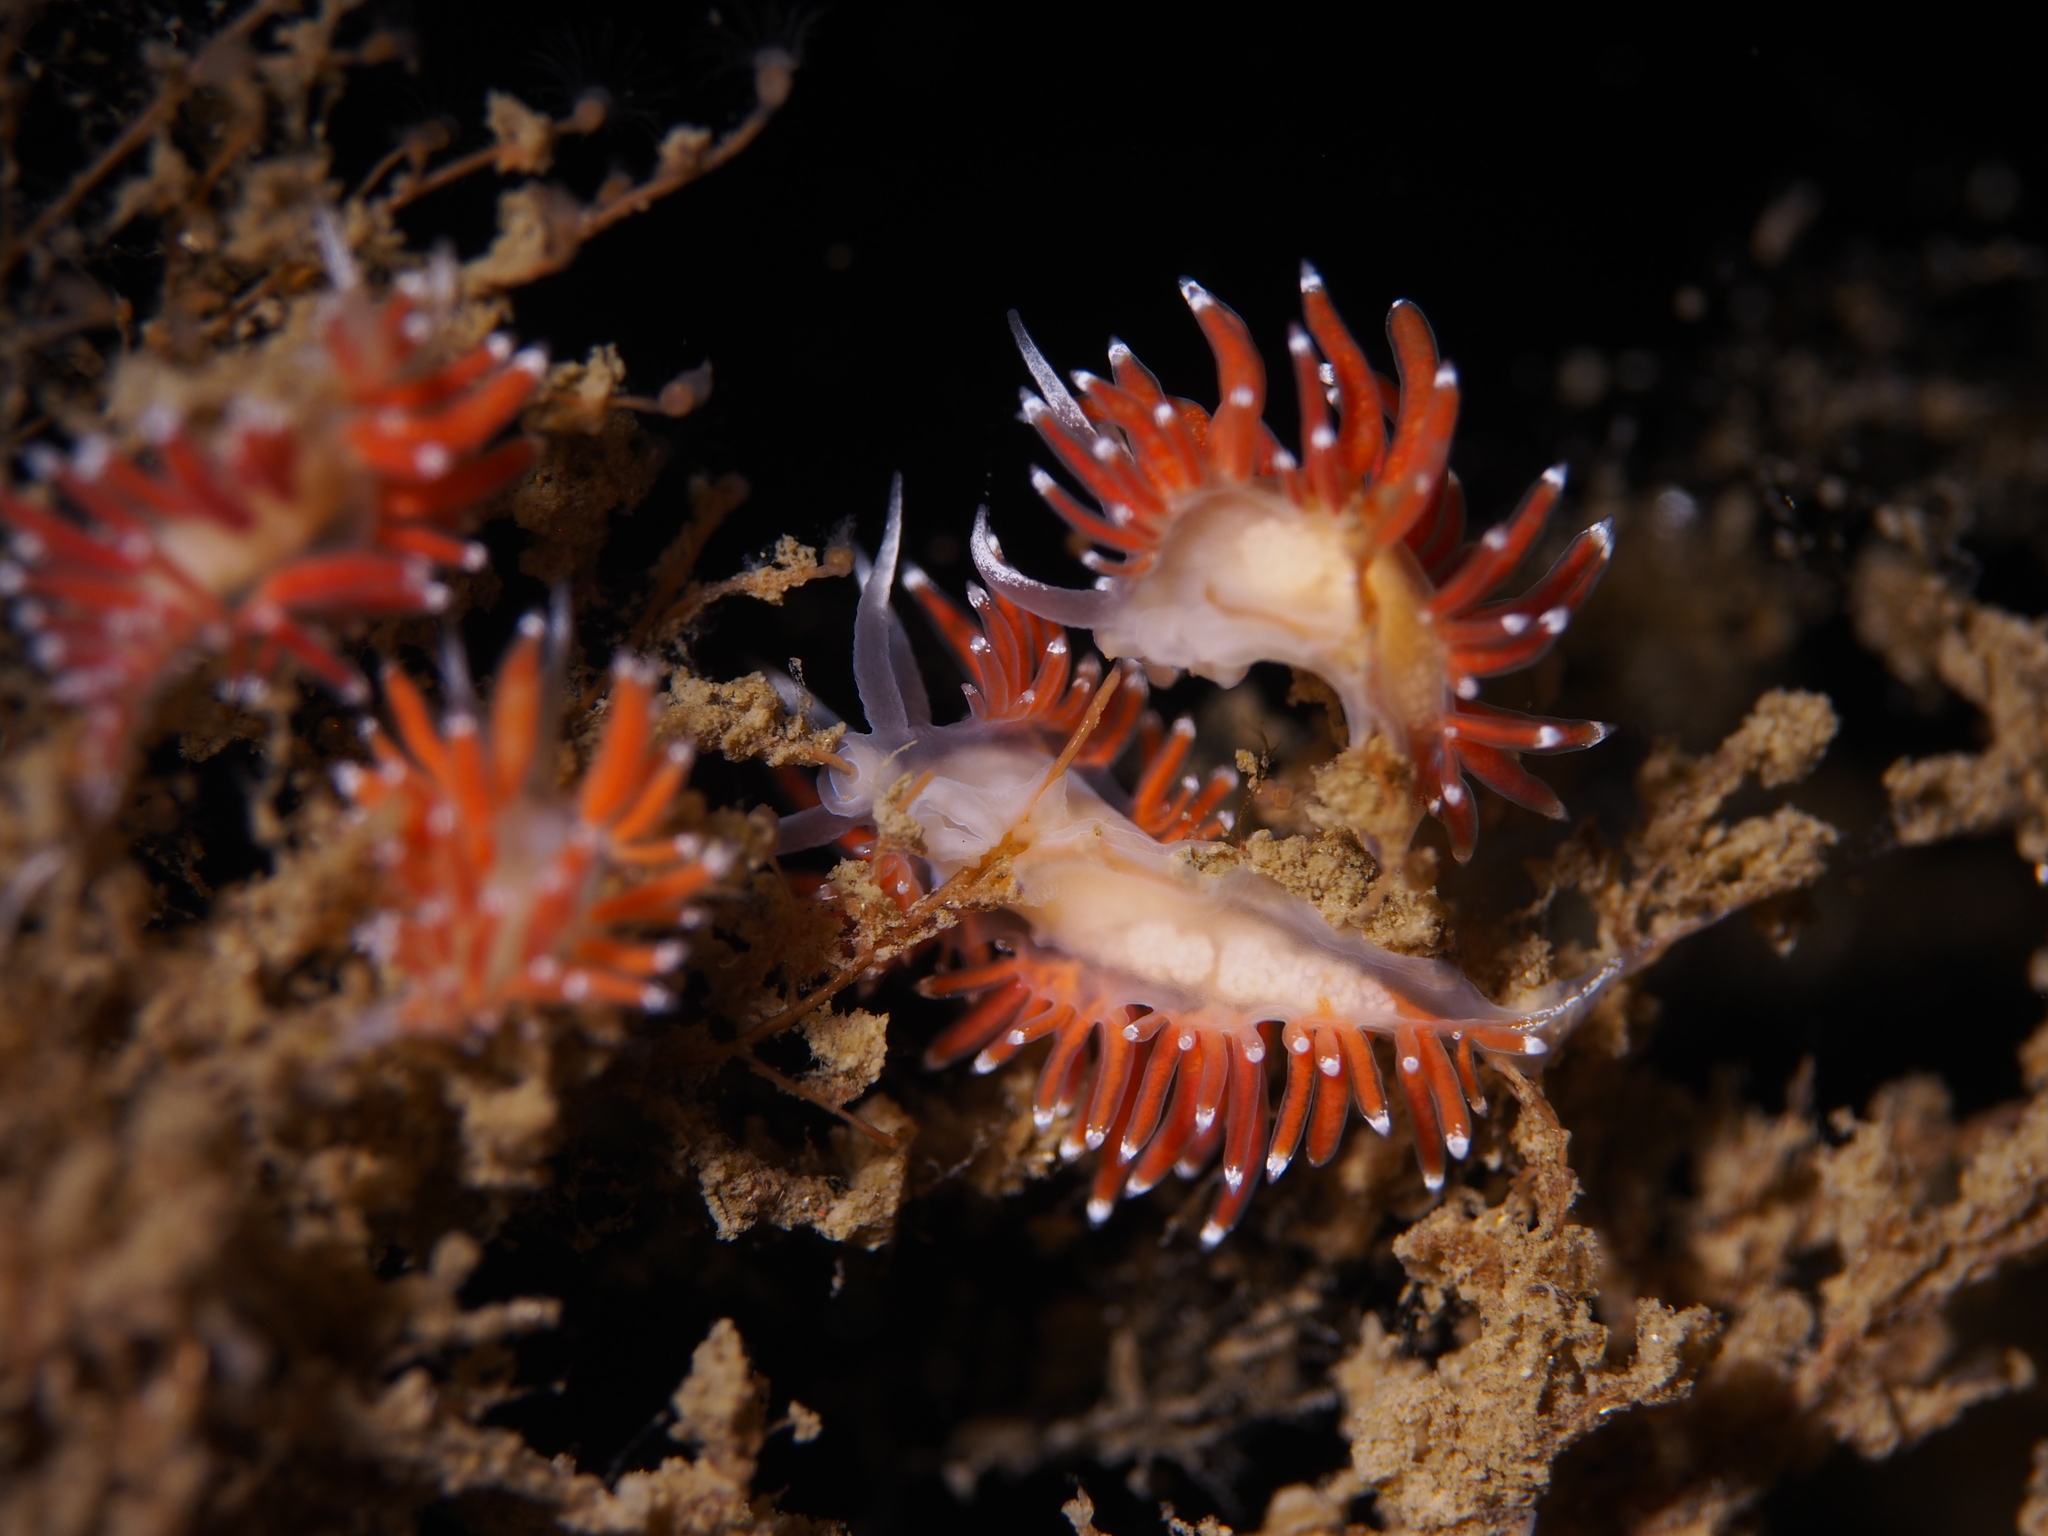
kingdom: Animalia
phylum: Mollusca
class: Gastropoda
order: Nudibranchia
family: Coryphellidae
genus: Coryphella
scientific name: Coryphella gracilis
